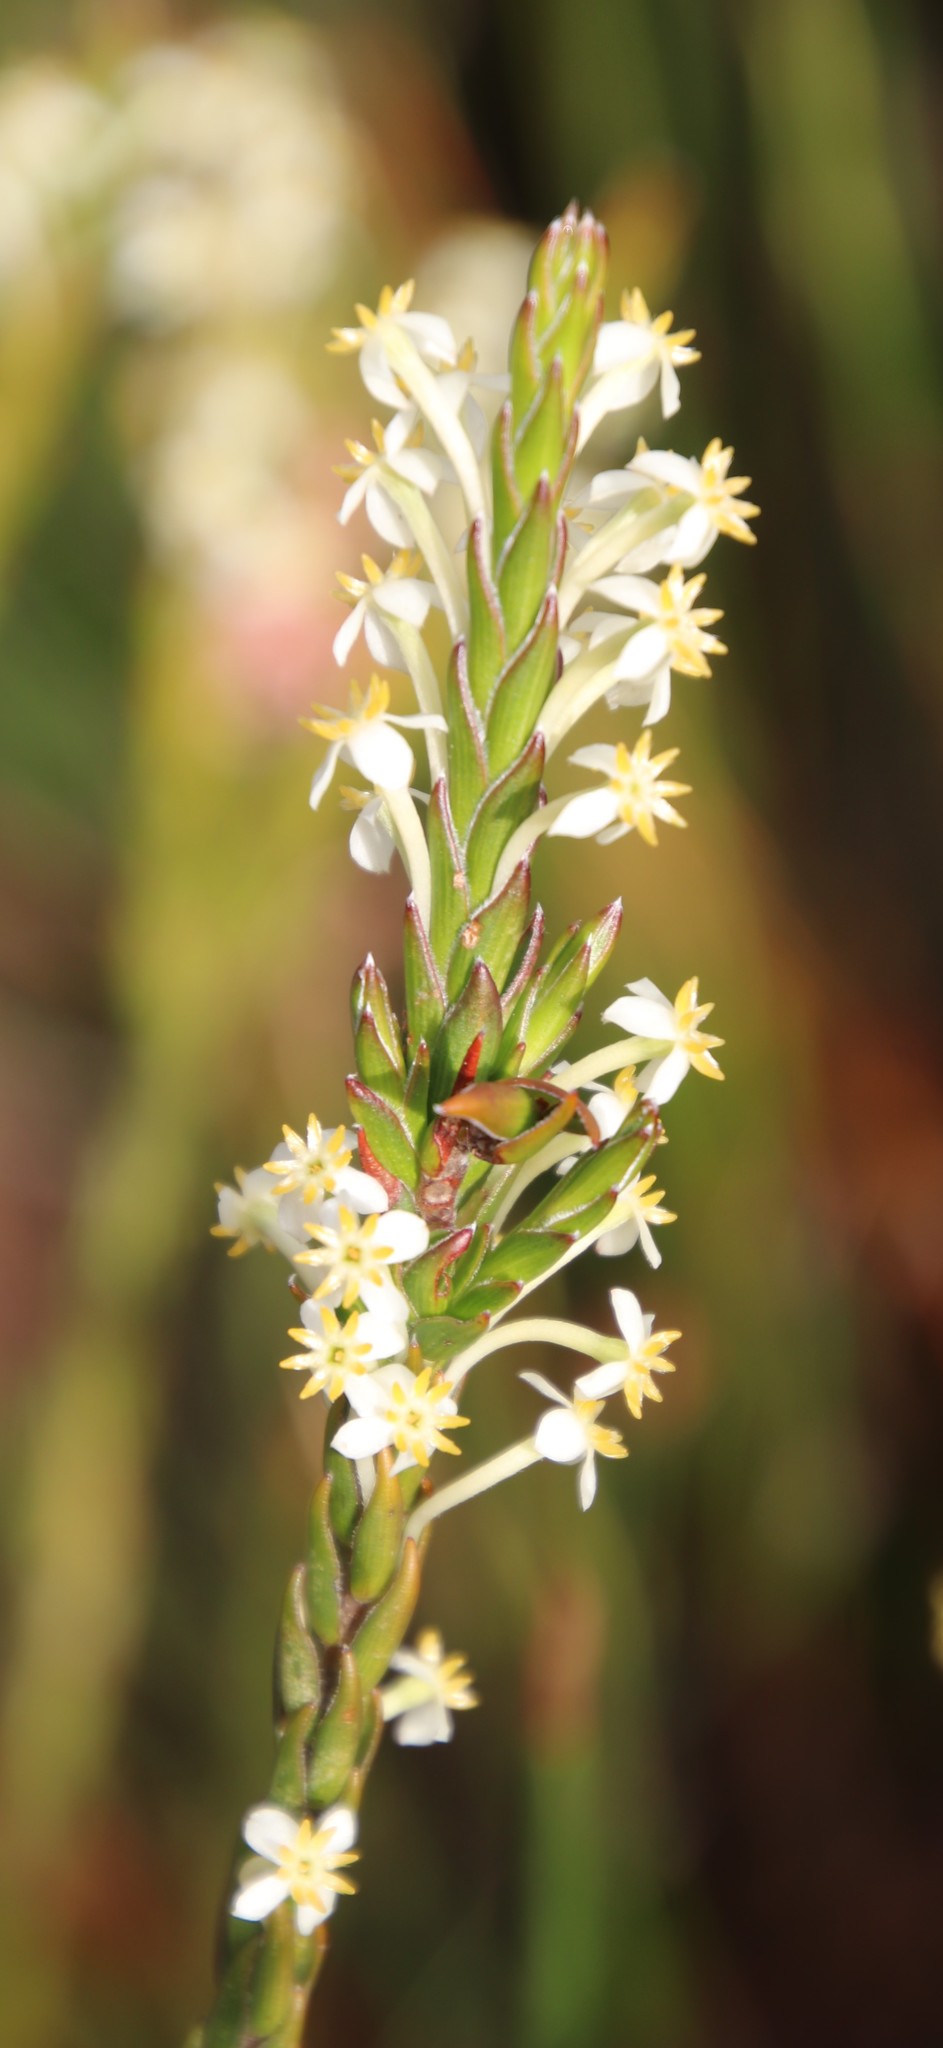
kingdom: Plantae
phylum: Tracheophyta
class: Magnoliopsida
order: Malvales
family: Thymelaeaceae
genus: Struthiola
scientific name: Struthiola ciliata
